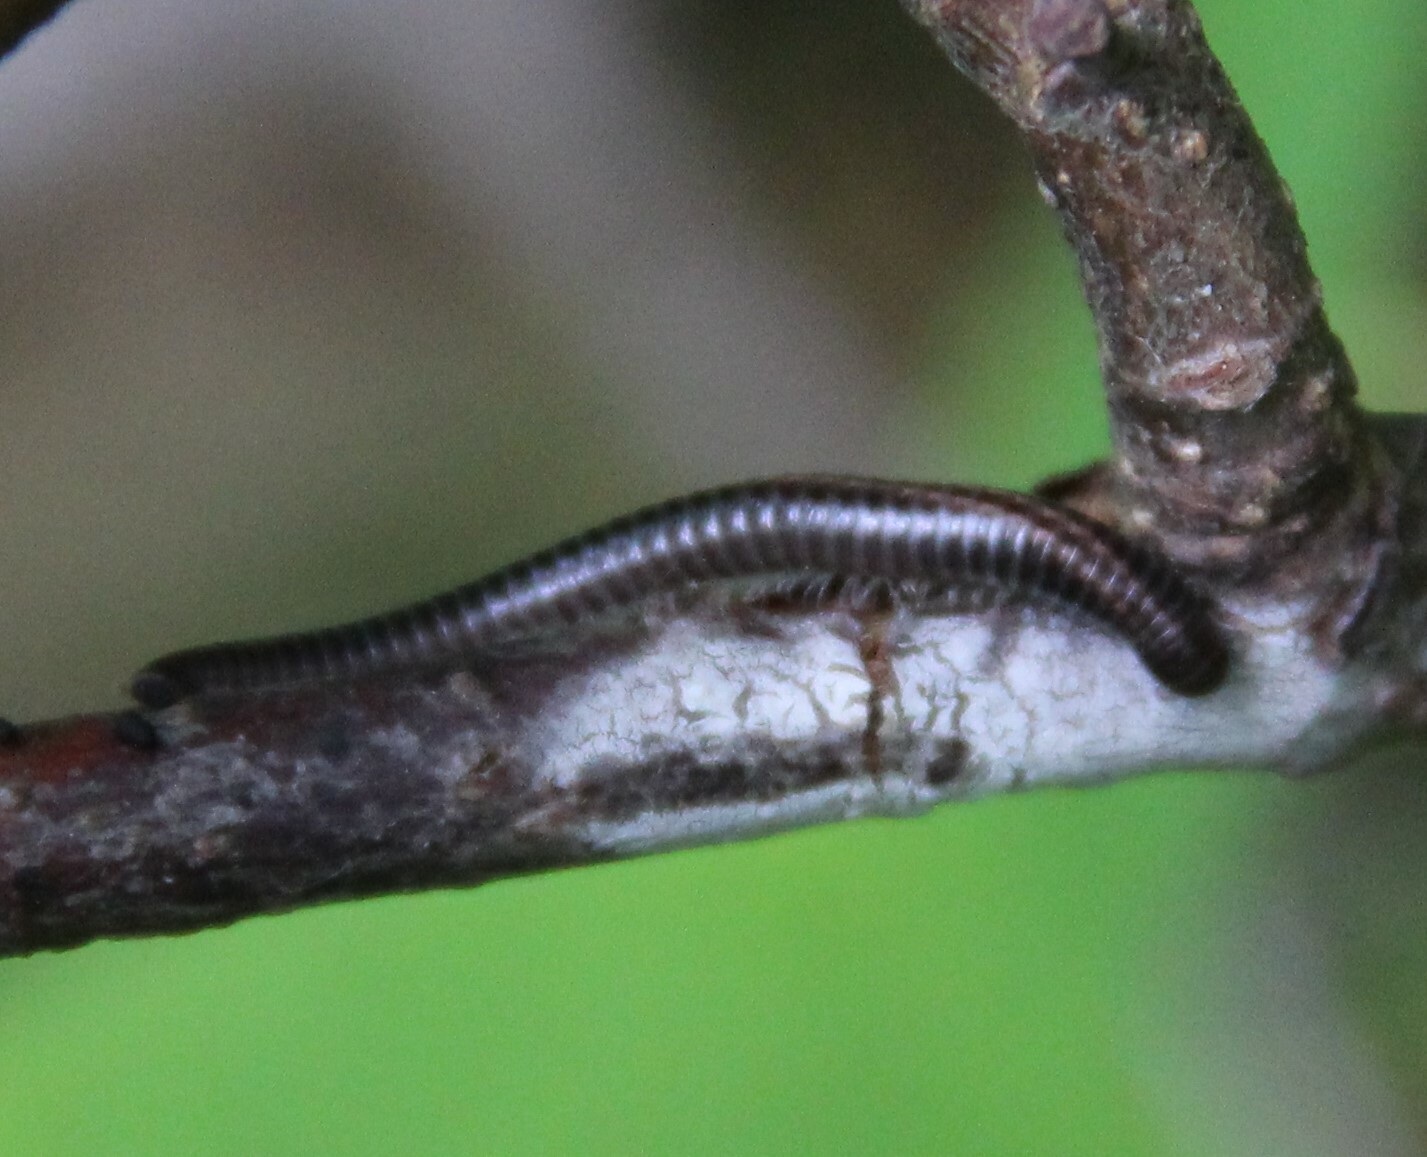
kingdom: Animalia
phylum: Arthropoda
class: Diplopoda
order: Julida
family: Julidae
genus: Ommatoiulus
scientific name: Ommatoiulus sabulosus
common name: Striped millipede
